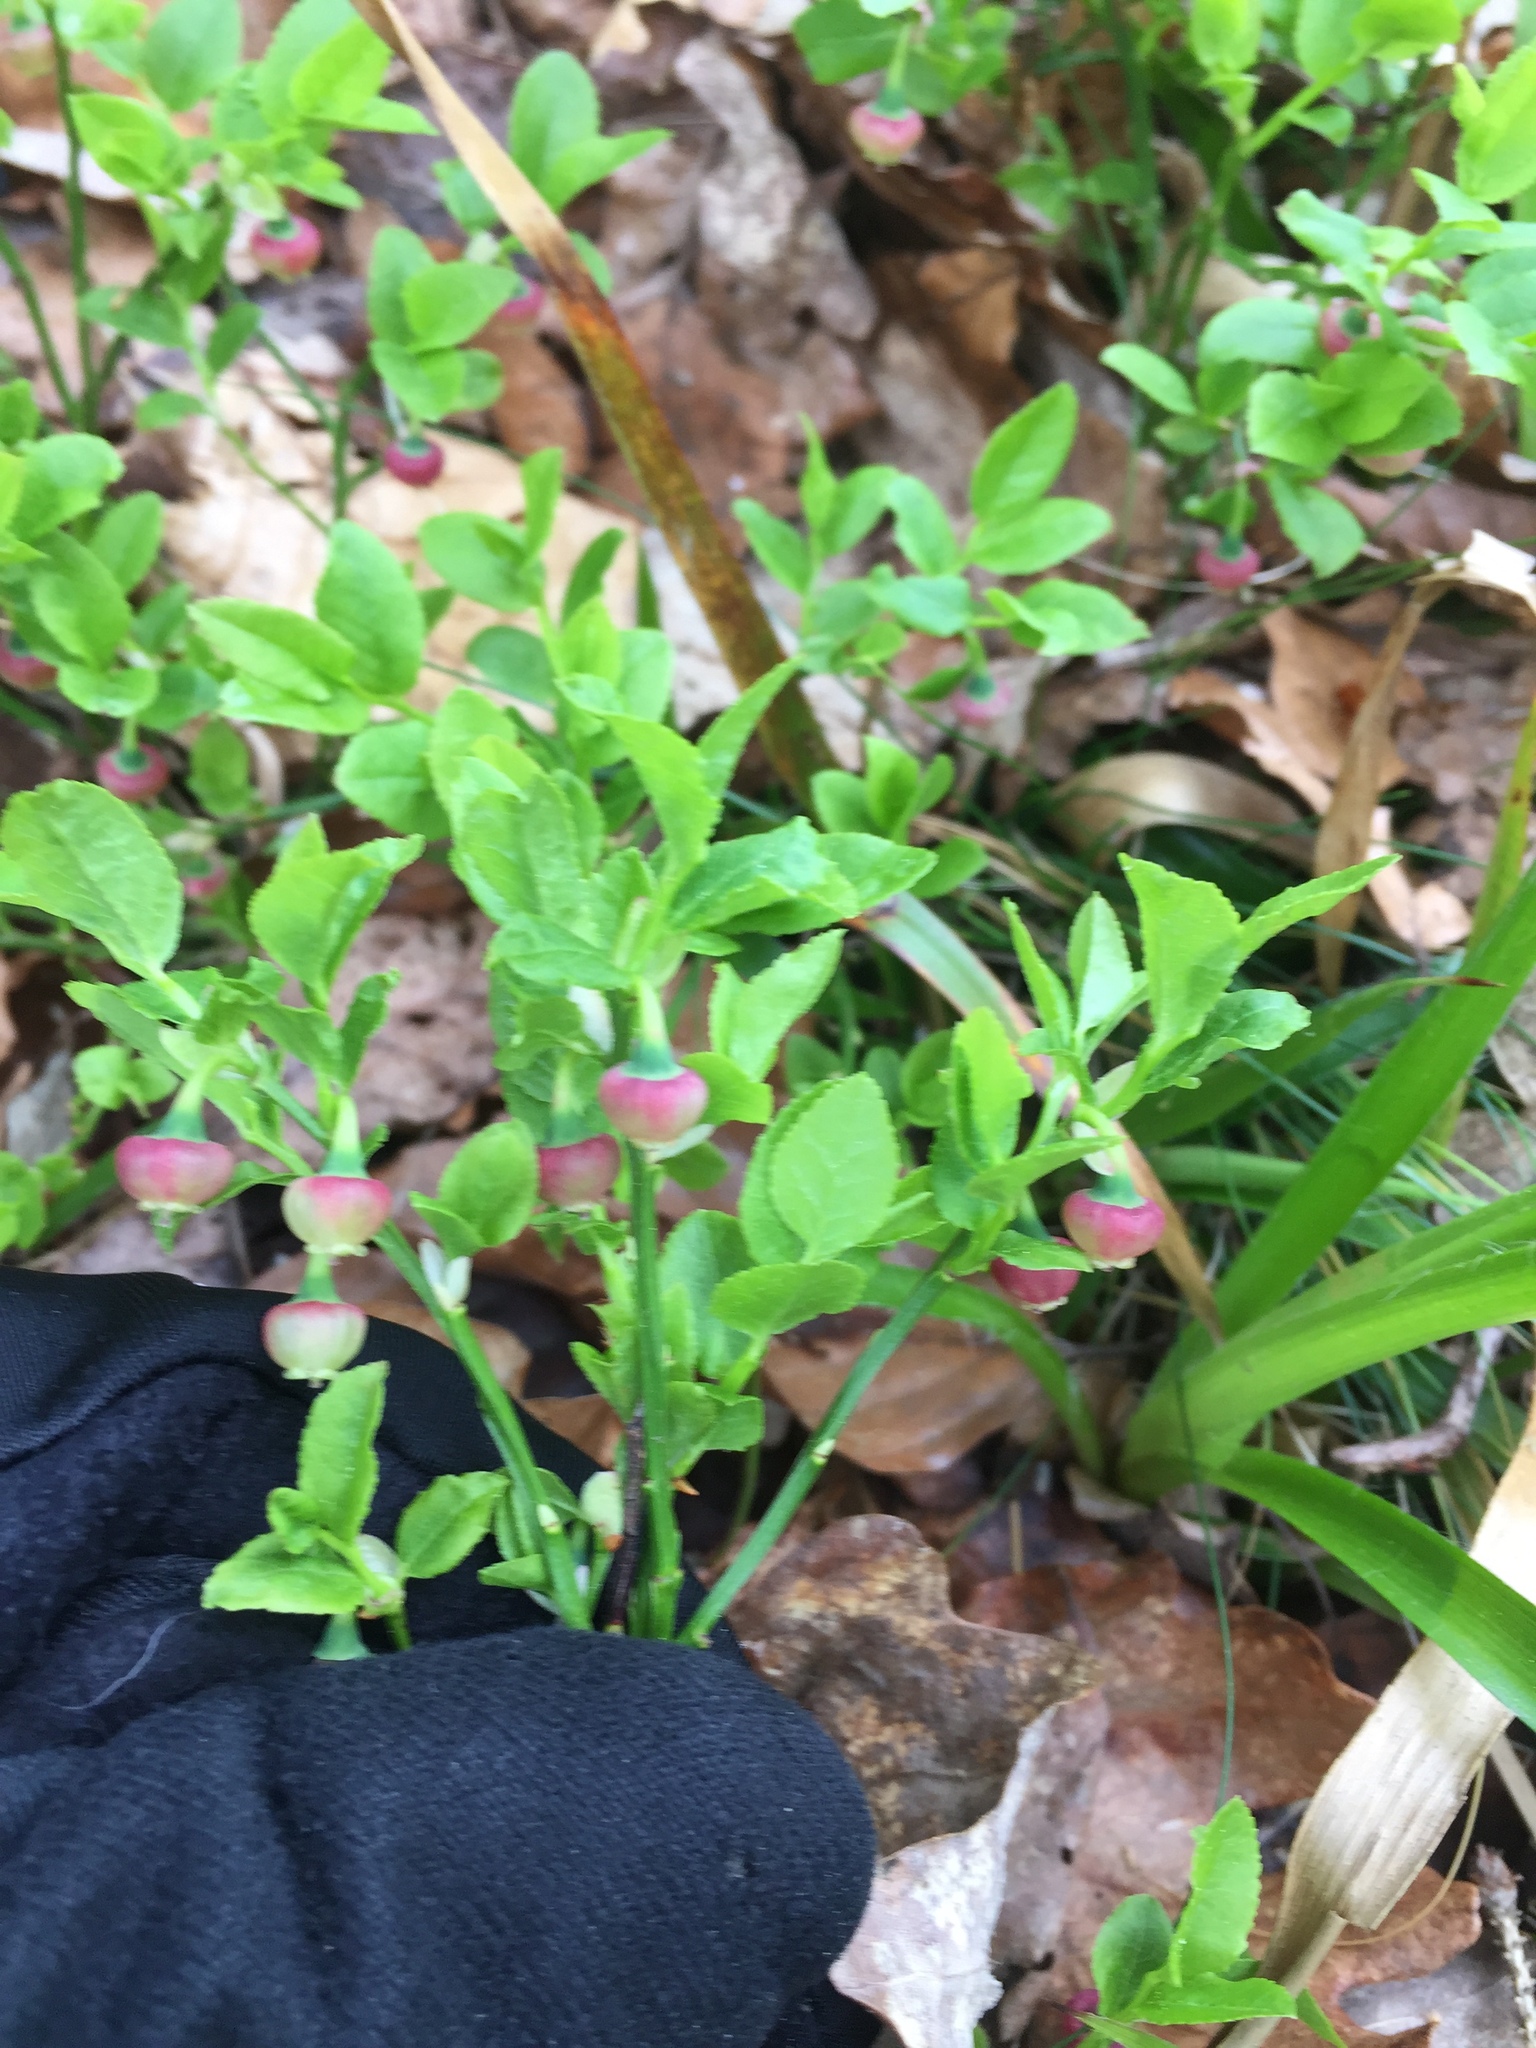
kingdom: Plantae
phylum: Tracheophyta
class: Magnoliopsida
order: Ericales
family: Ericaceae
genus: Vaccinium
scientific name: Vaccinium myrtillus
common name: Bilberry
